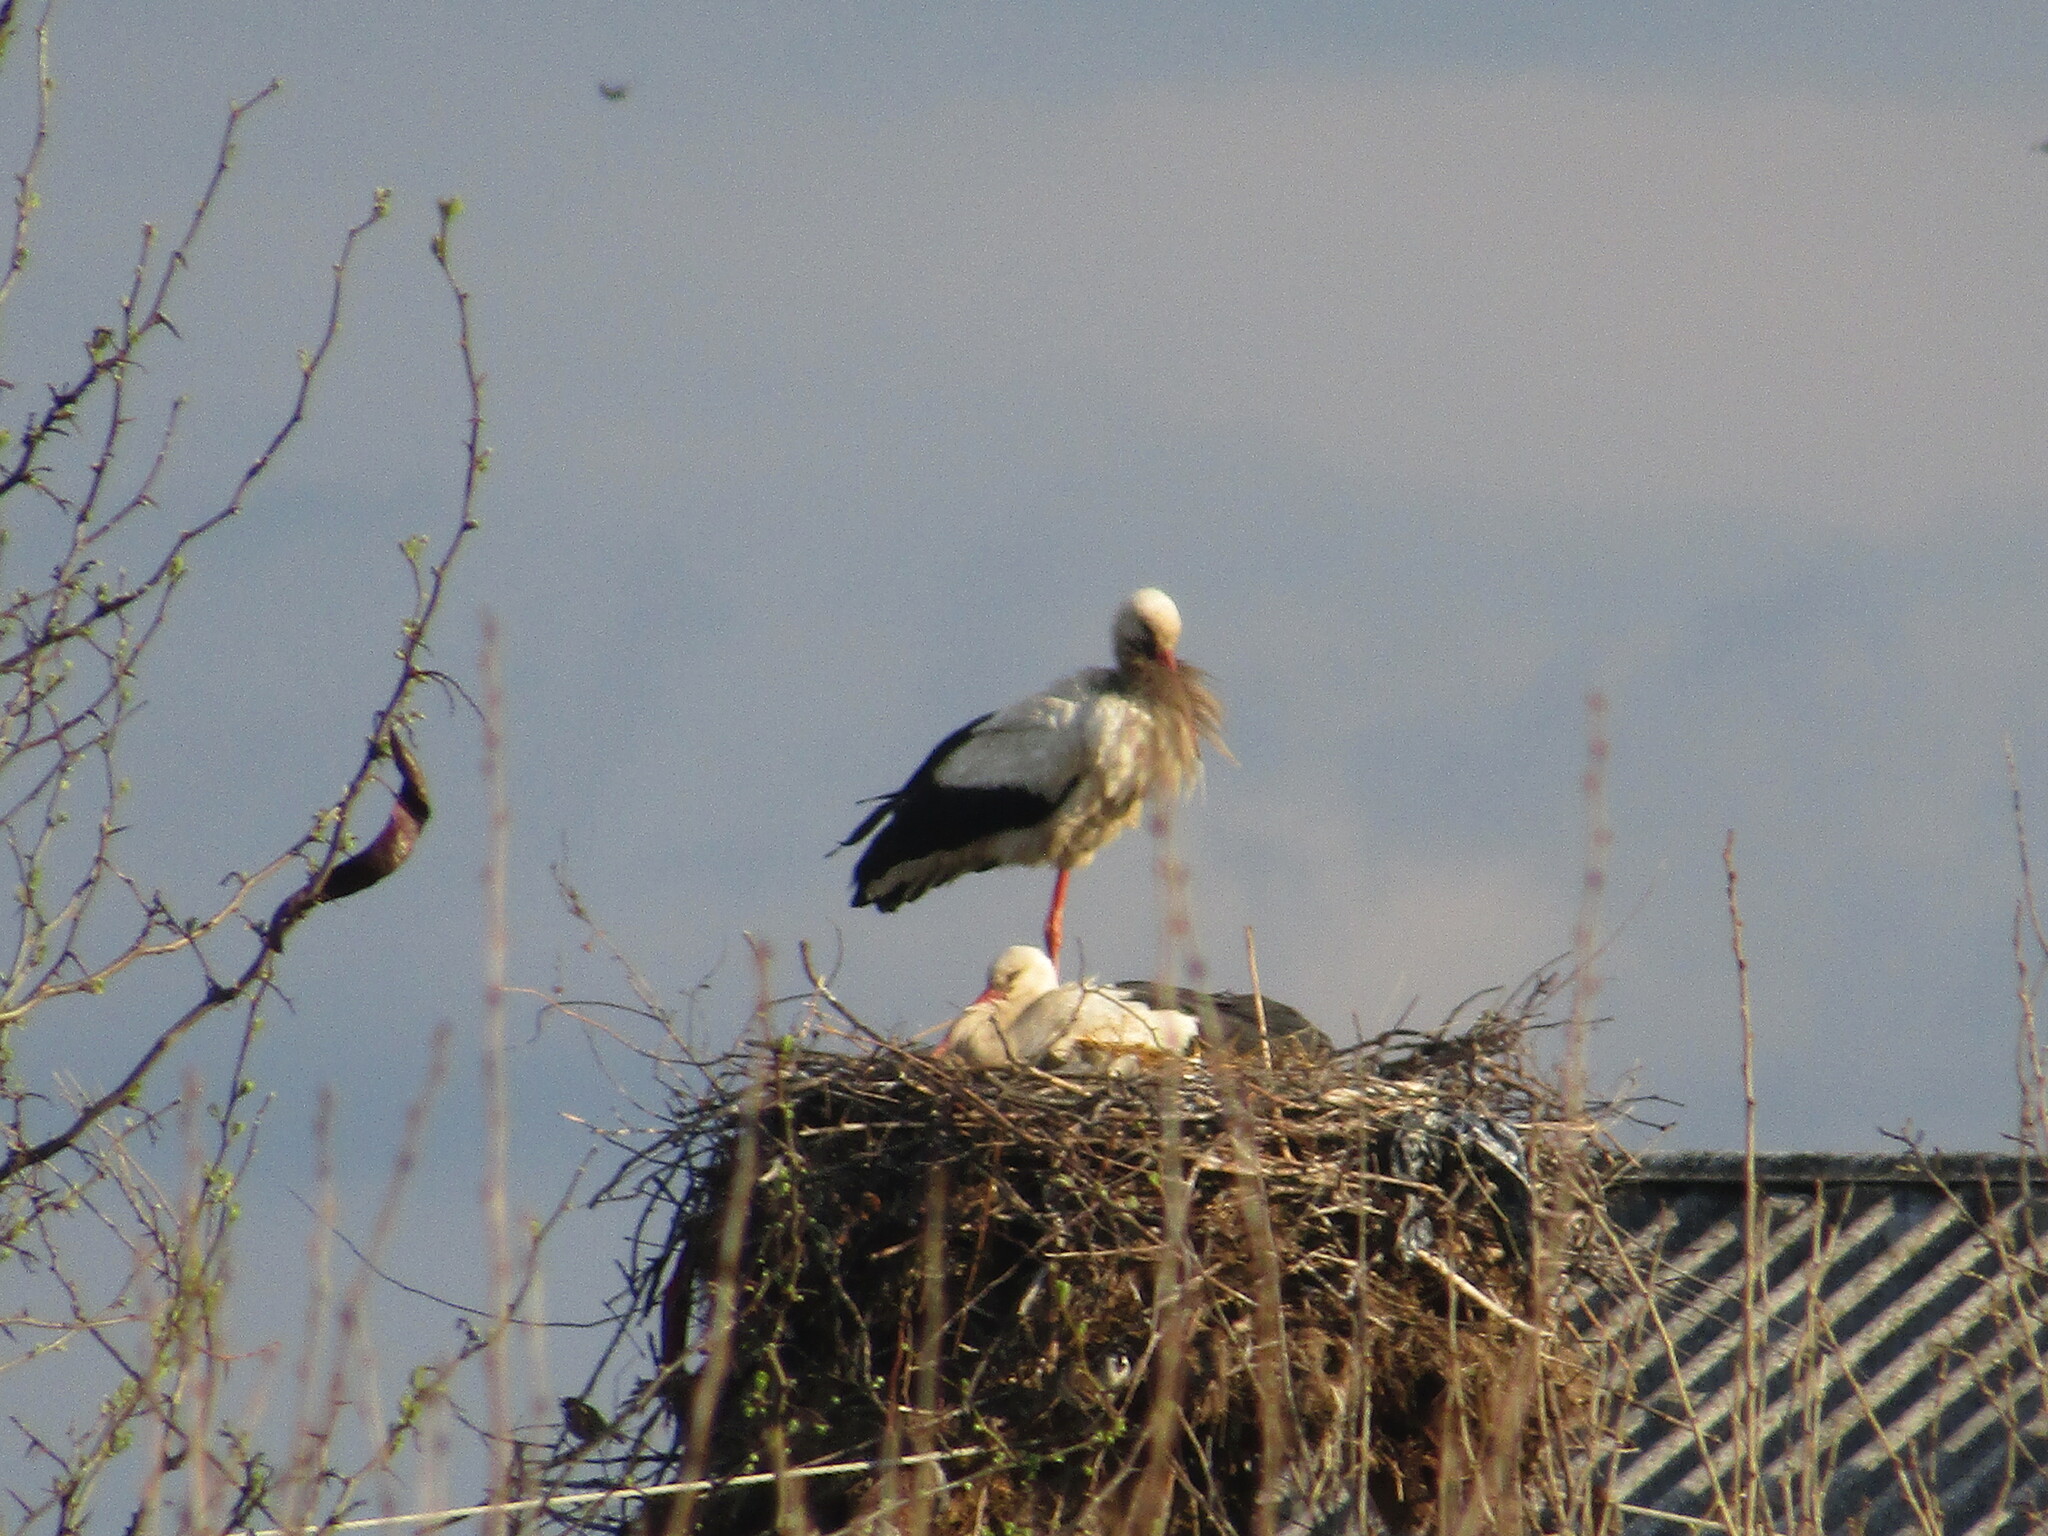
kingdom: Animalia
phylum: Chordata
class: Aves
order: Ciconiiformes
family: Ciconiidae
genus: Ciconia
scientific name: Ciconia ciconia
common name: White stork
